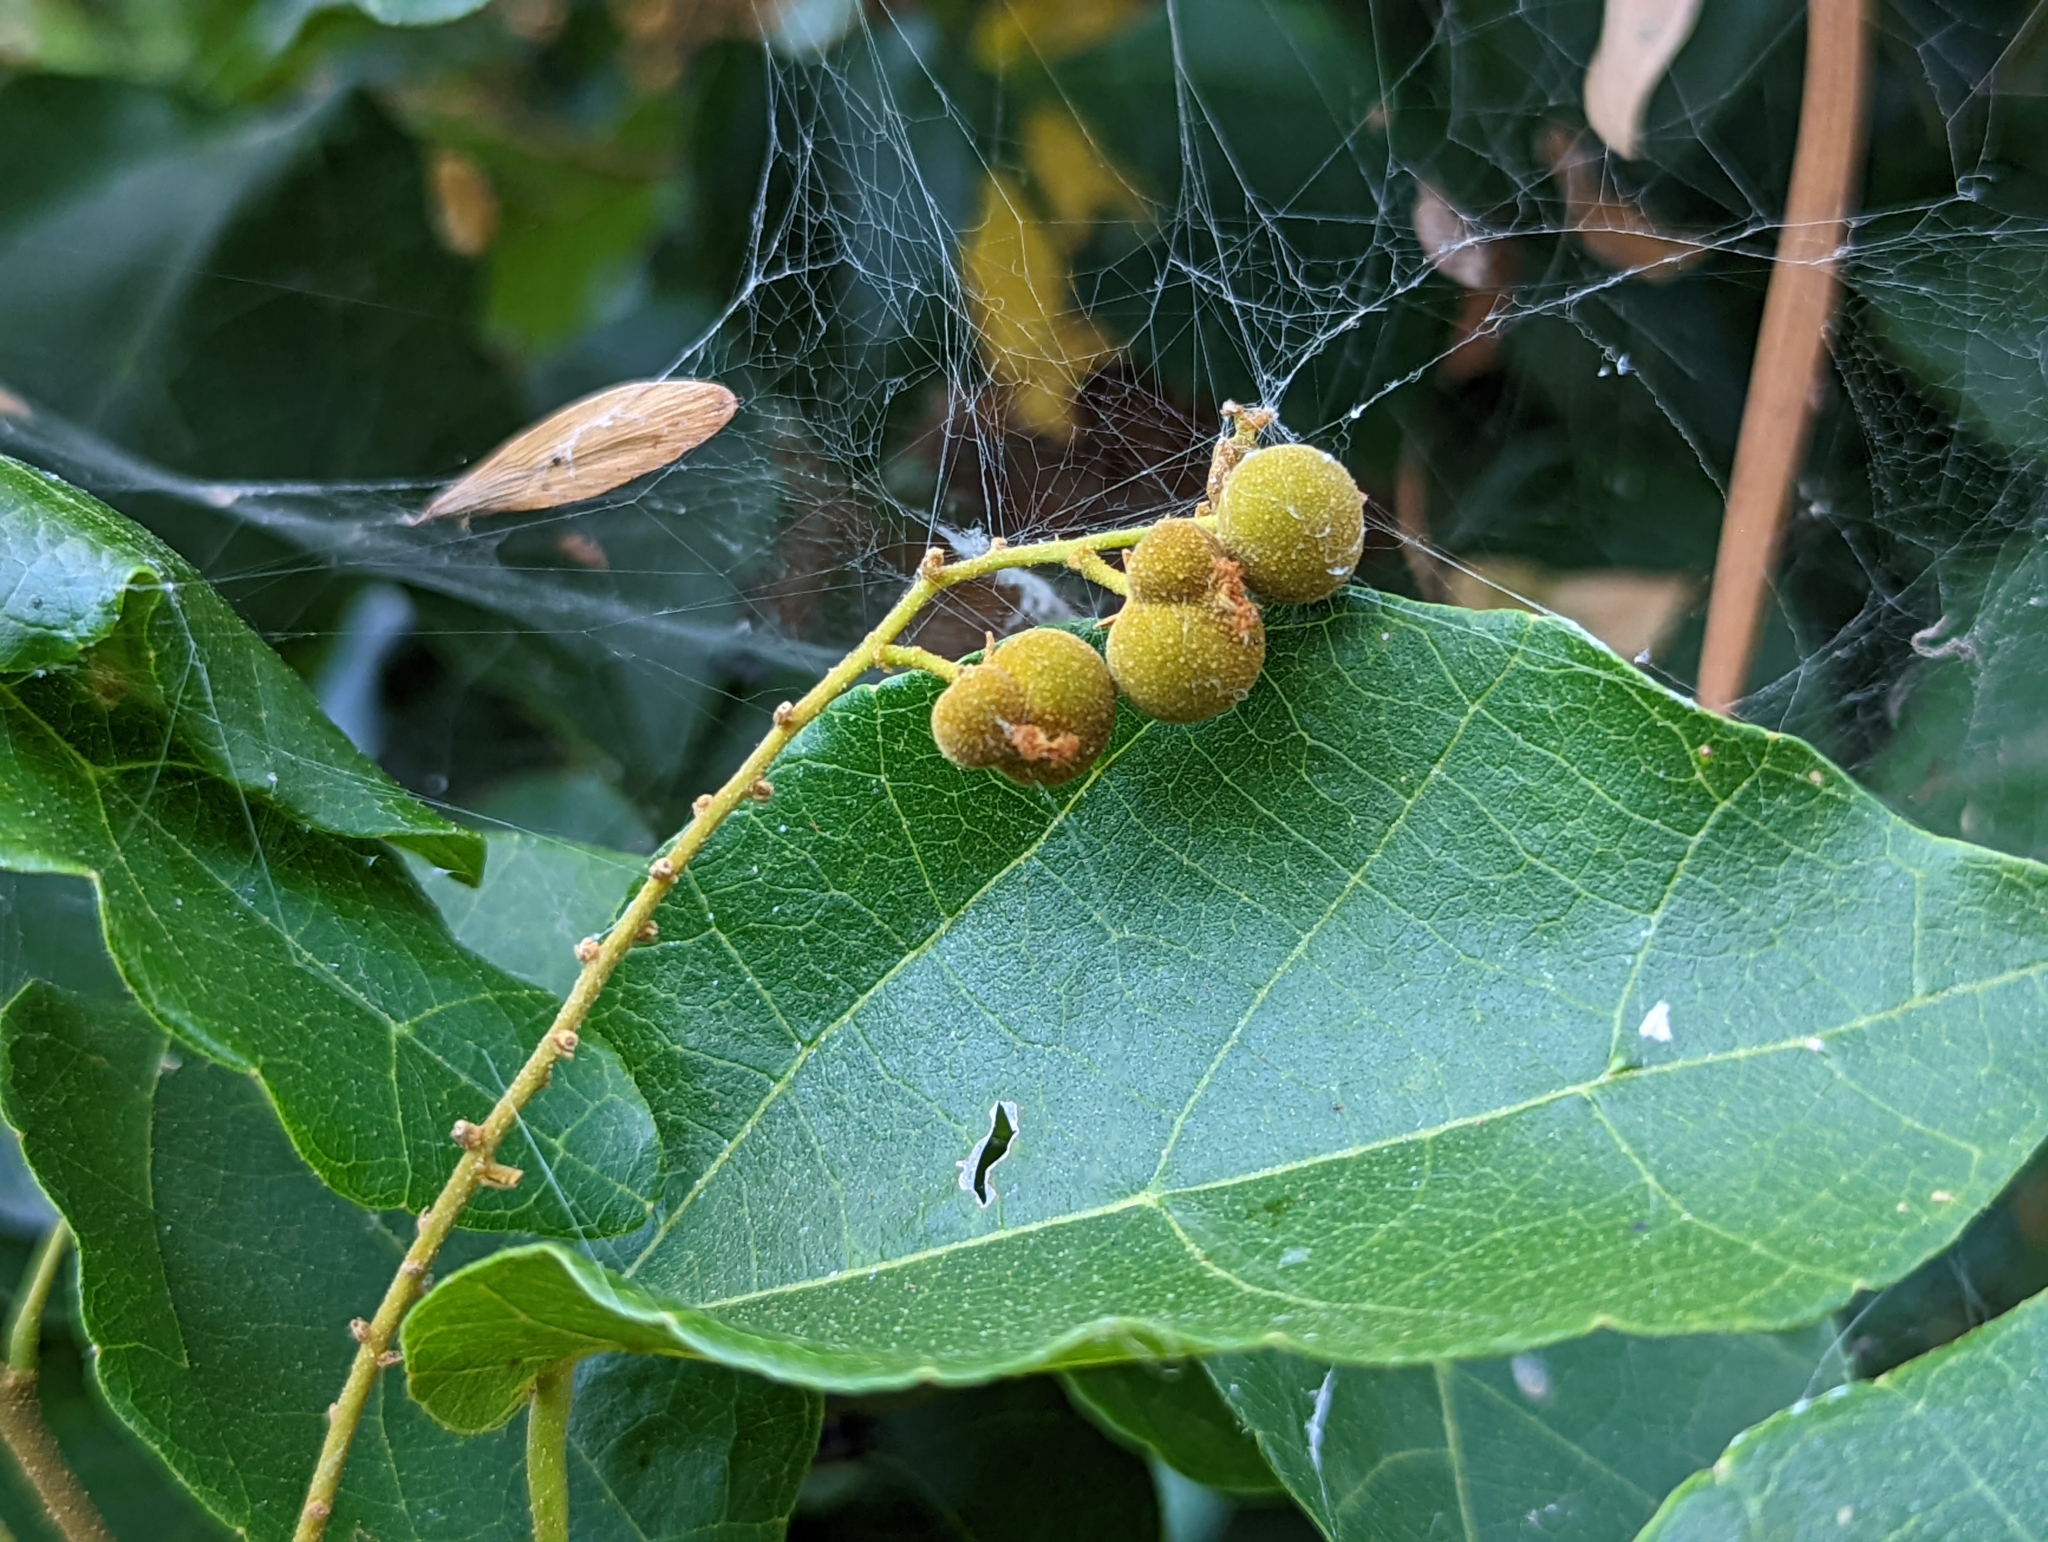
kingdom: Plantae
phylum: Tracheophyta
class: Magnoliopsida
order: Malpighiales
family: Euphorbiaceae
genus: Mallotus
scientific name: Mallotus repandus
